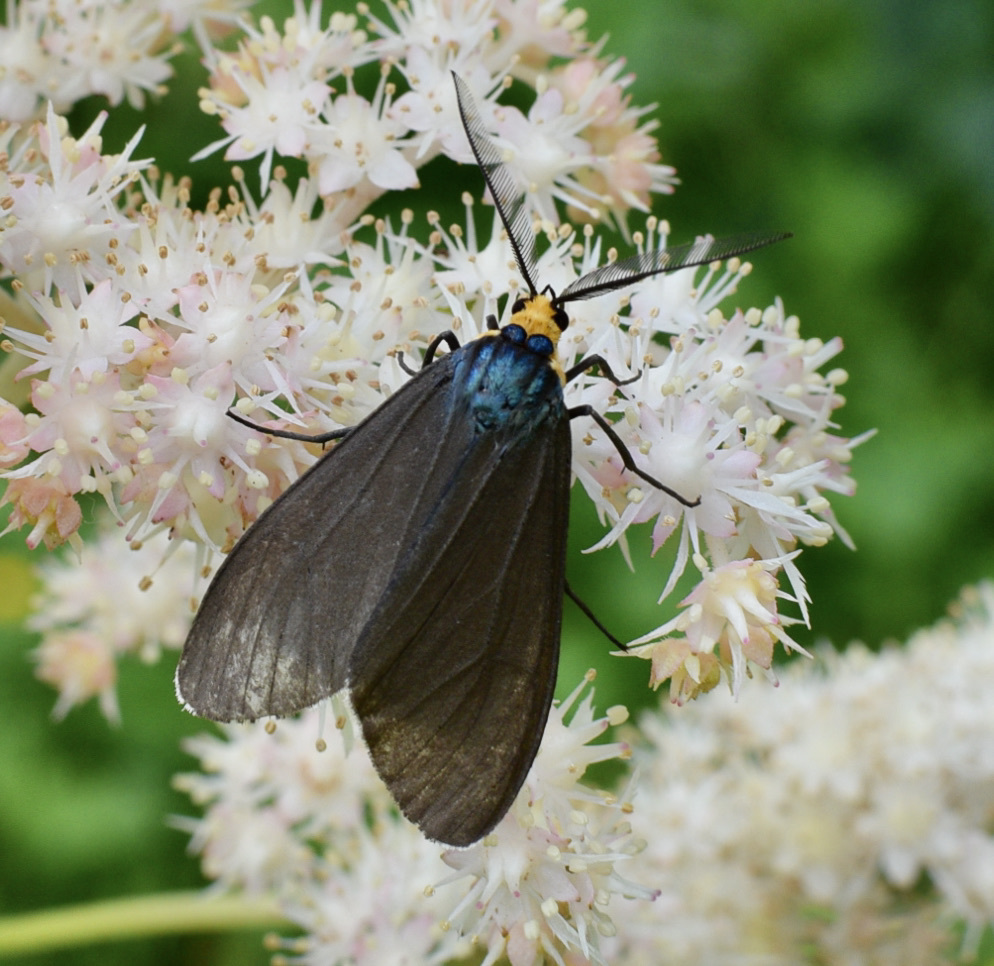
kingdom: Animalia
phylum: Arthropoda
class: Insecta
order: Lepidoptera
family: Erebidae
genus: Ctenucha
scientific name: Ctenucha virginica
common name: Virginia ctenucha moth
